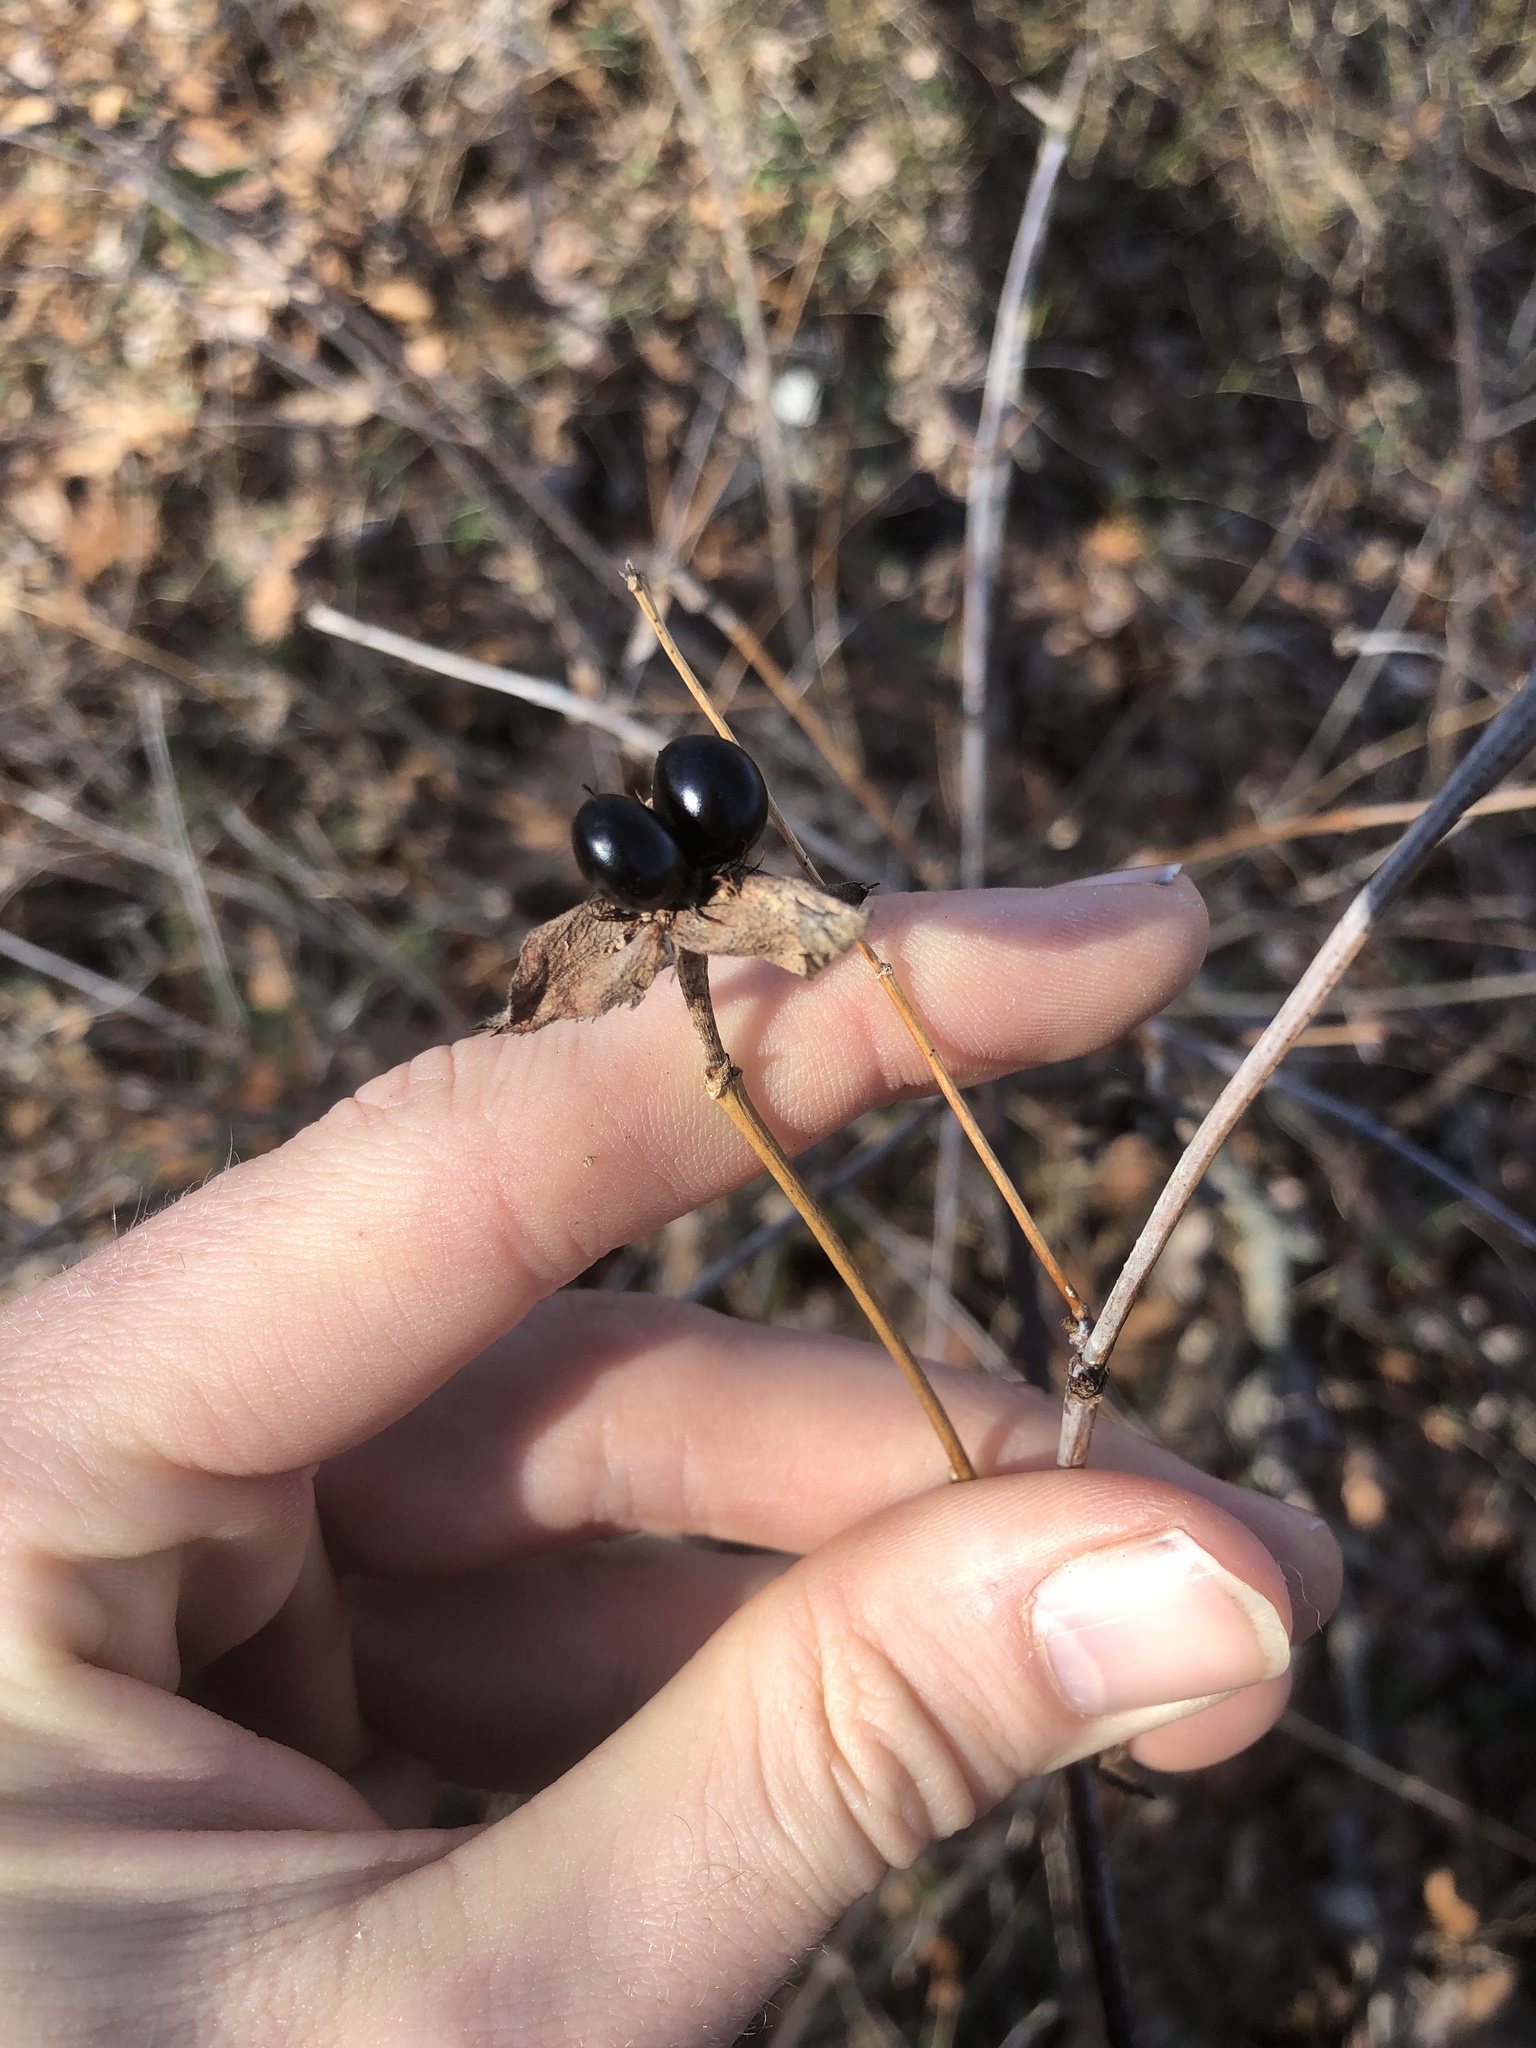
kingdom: Plantae
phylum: Tracheophyta
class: Magnoliopsida
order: Rosales
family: Rosaceae
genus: Rhodotypos
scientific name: Rhodotypos scandens
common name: Jetbead
